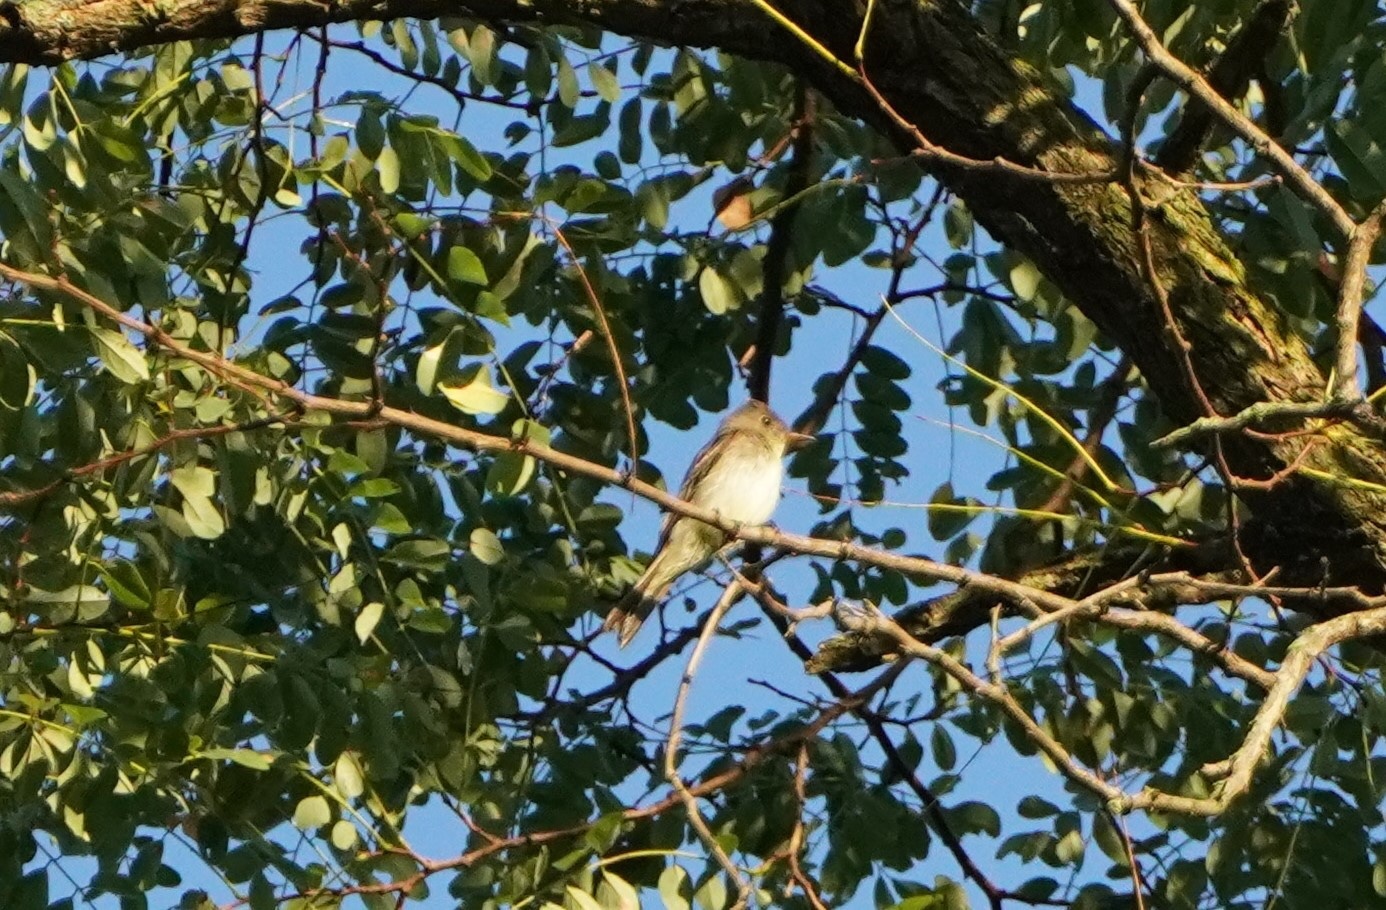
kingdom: Animalia
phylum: Chordata
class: Aves
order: Passeriformes
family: Tyrannidae
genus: Contopus
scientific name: Contopus virens
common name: Eastern wood-pewee
